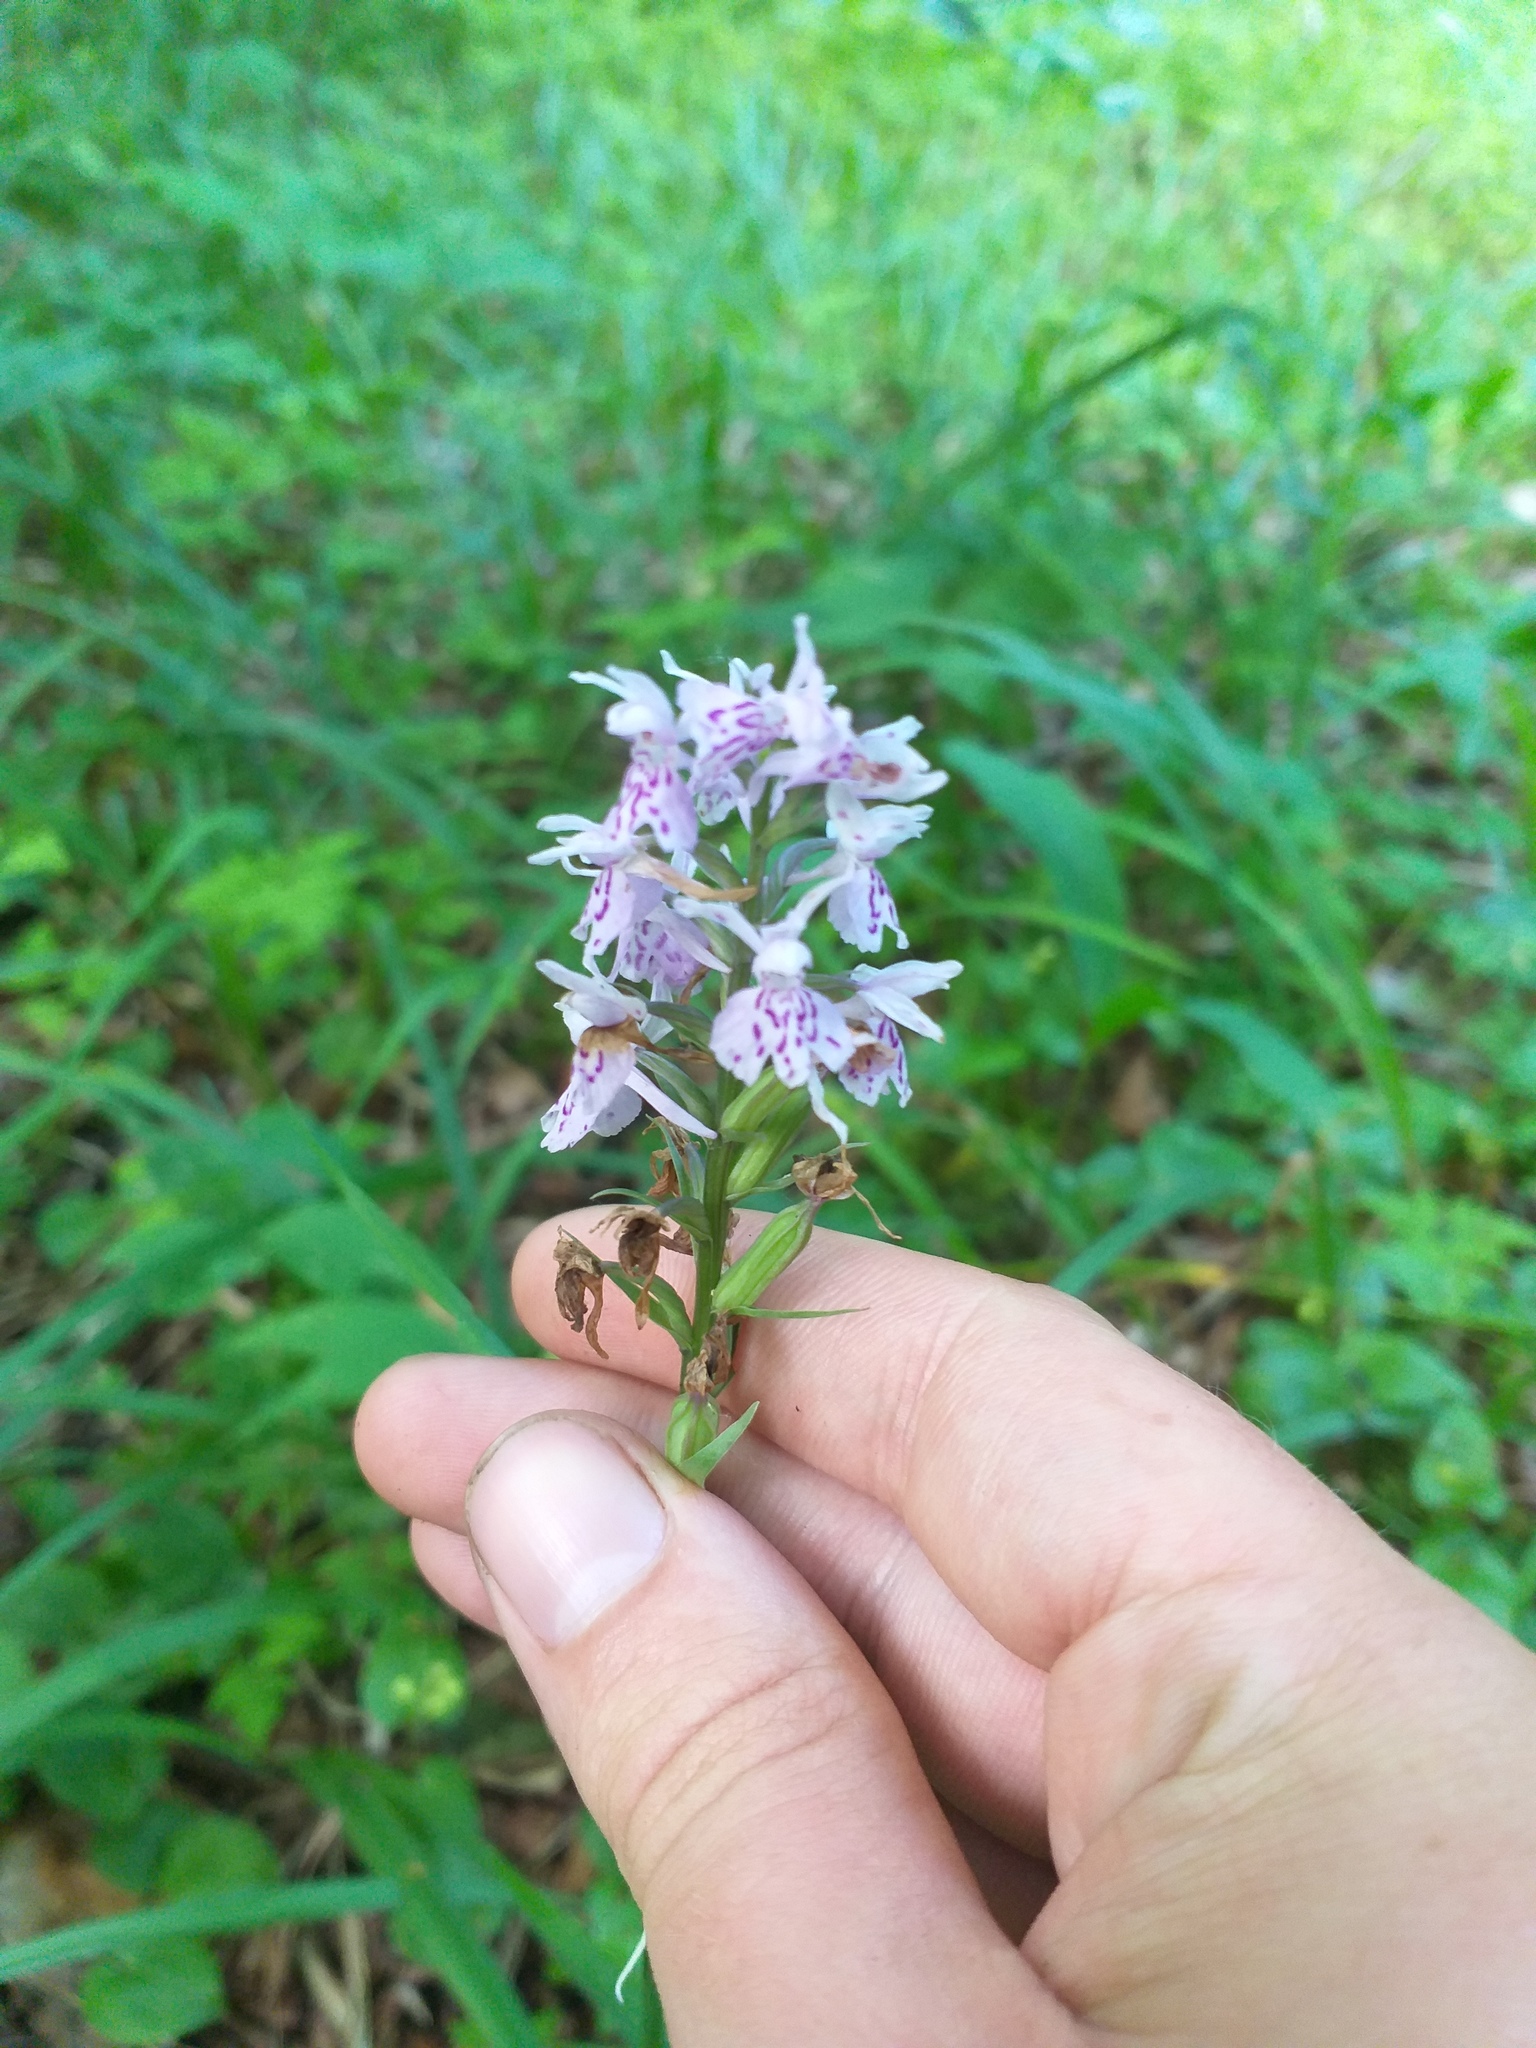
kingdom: Plantae
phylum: Tracheophyta
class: Liliopsida
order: Asparagales
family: Orchidaceae
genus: Dactylorhiza
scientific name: Dactylorhiza maculata
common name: Heath spotted-orchid
